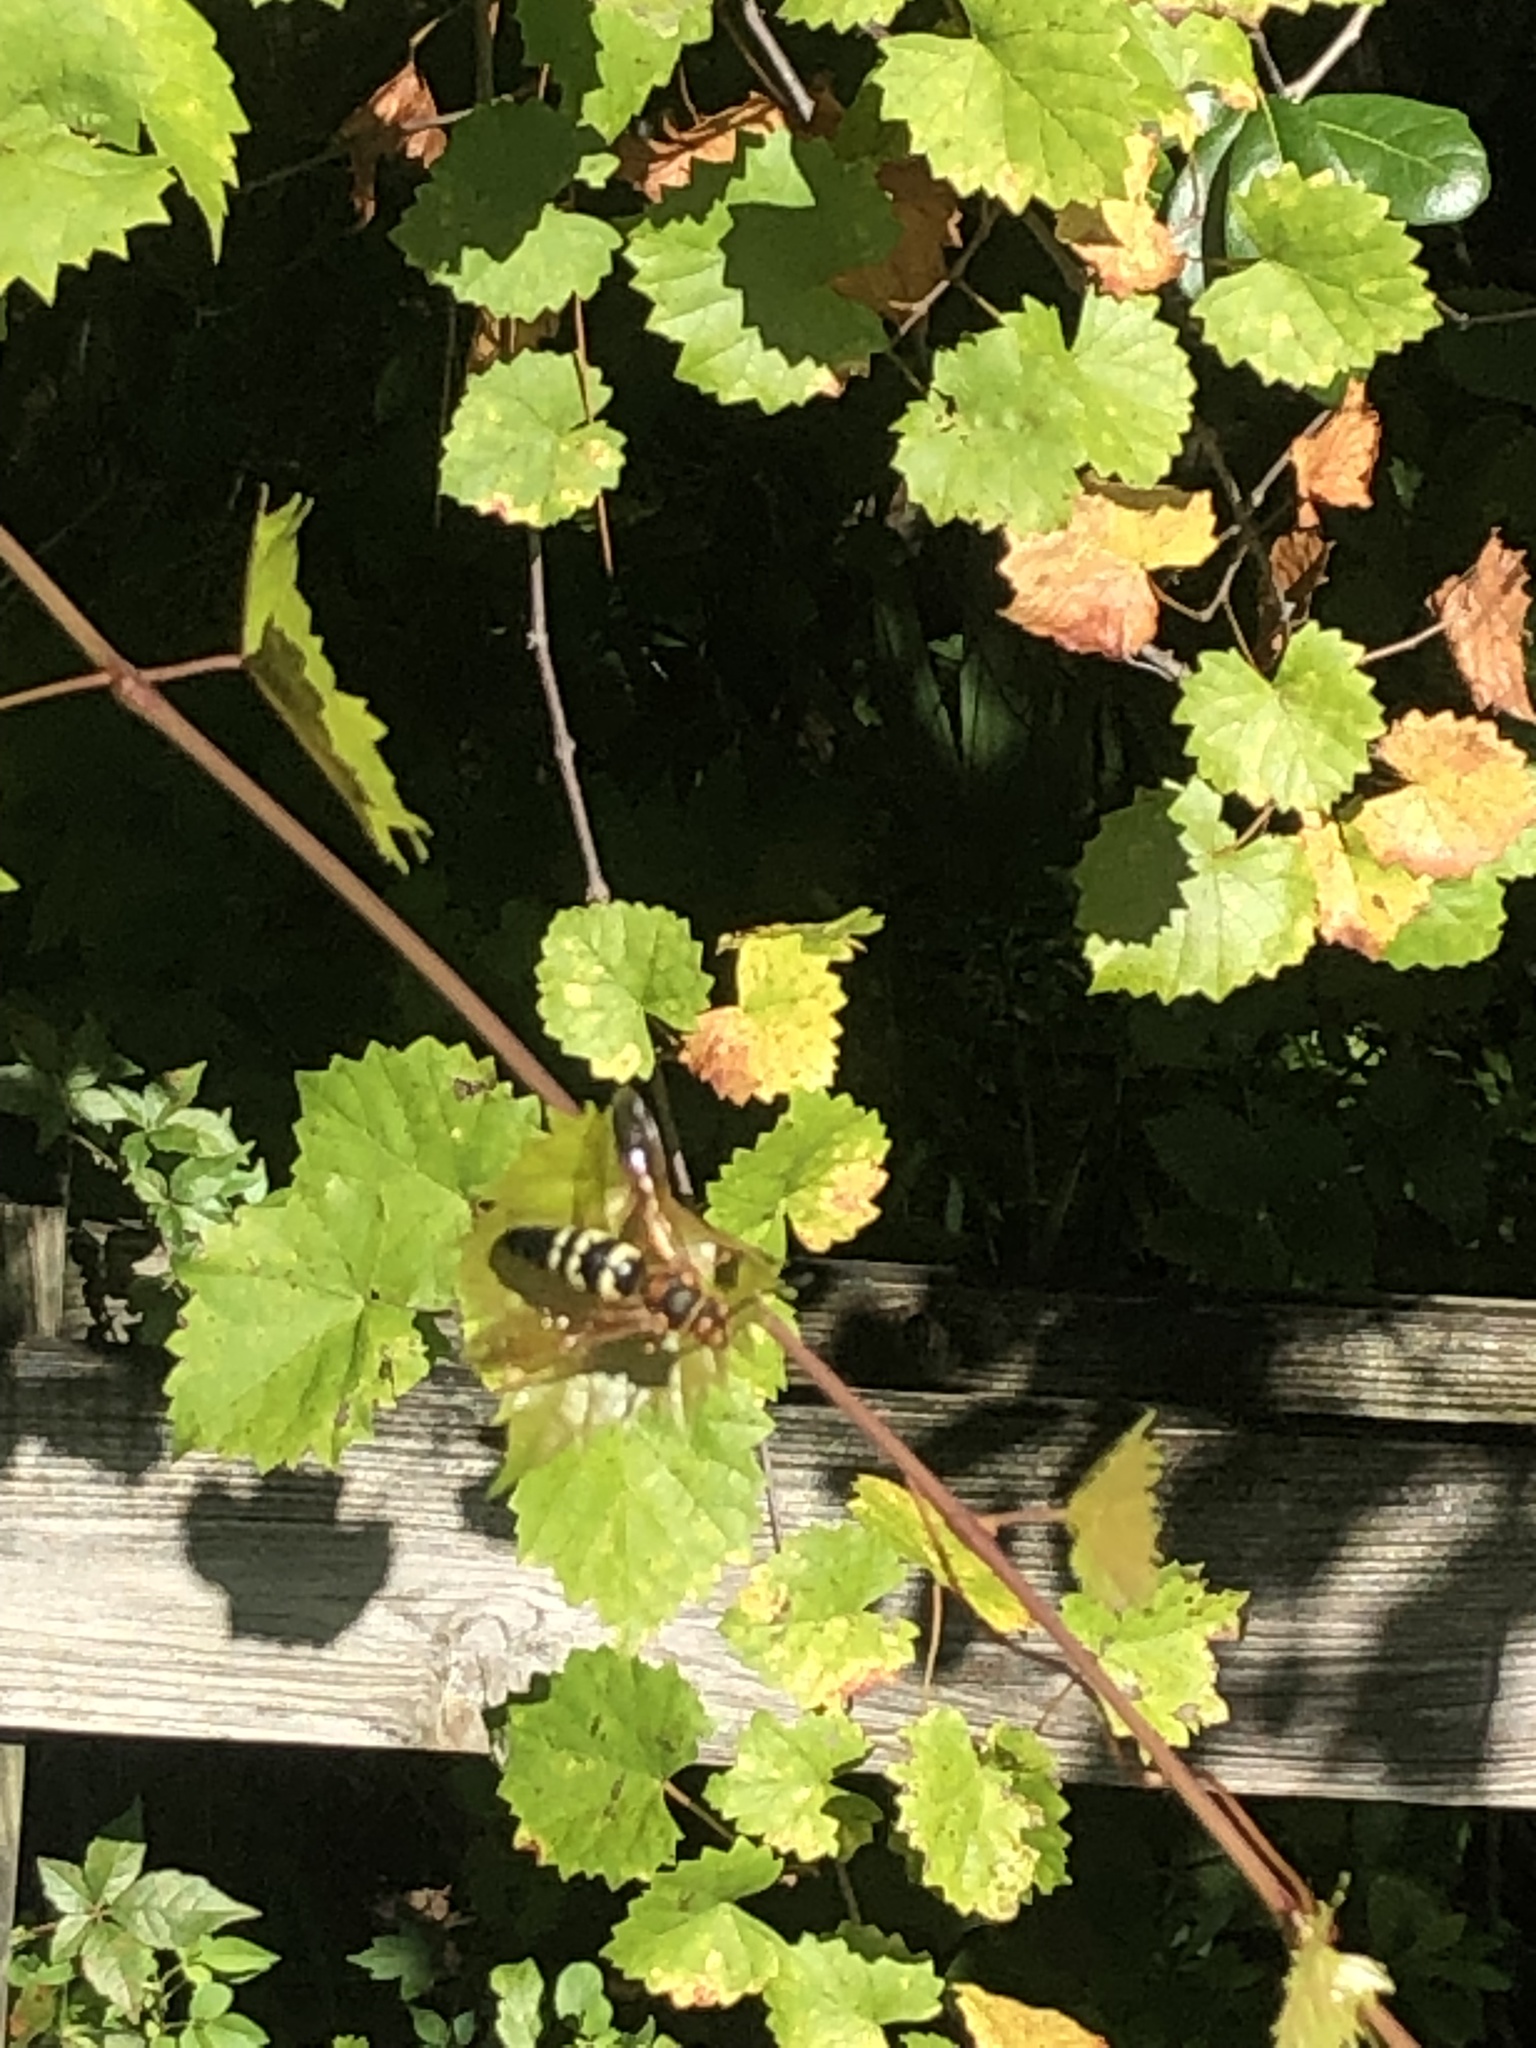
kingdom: Animalia
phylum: Arthropoda
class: Insecta
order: Hymenoptera
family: Crabronidae
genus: Sphecius
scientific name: Sphecius speciosus
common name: Cicada killer
